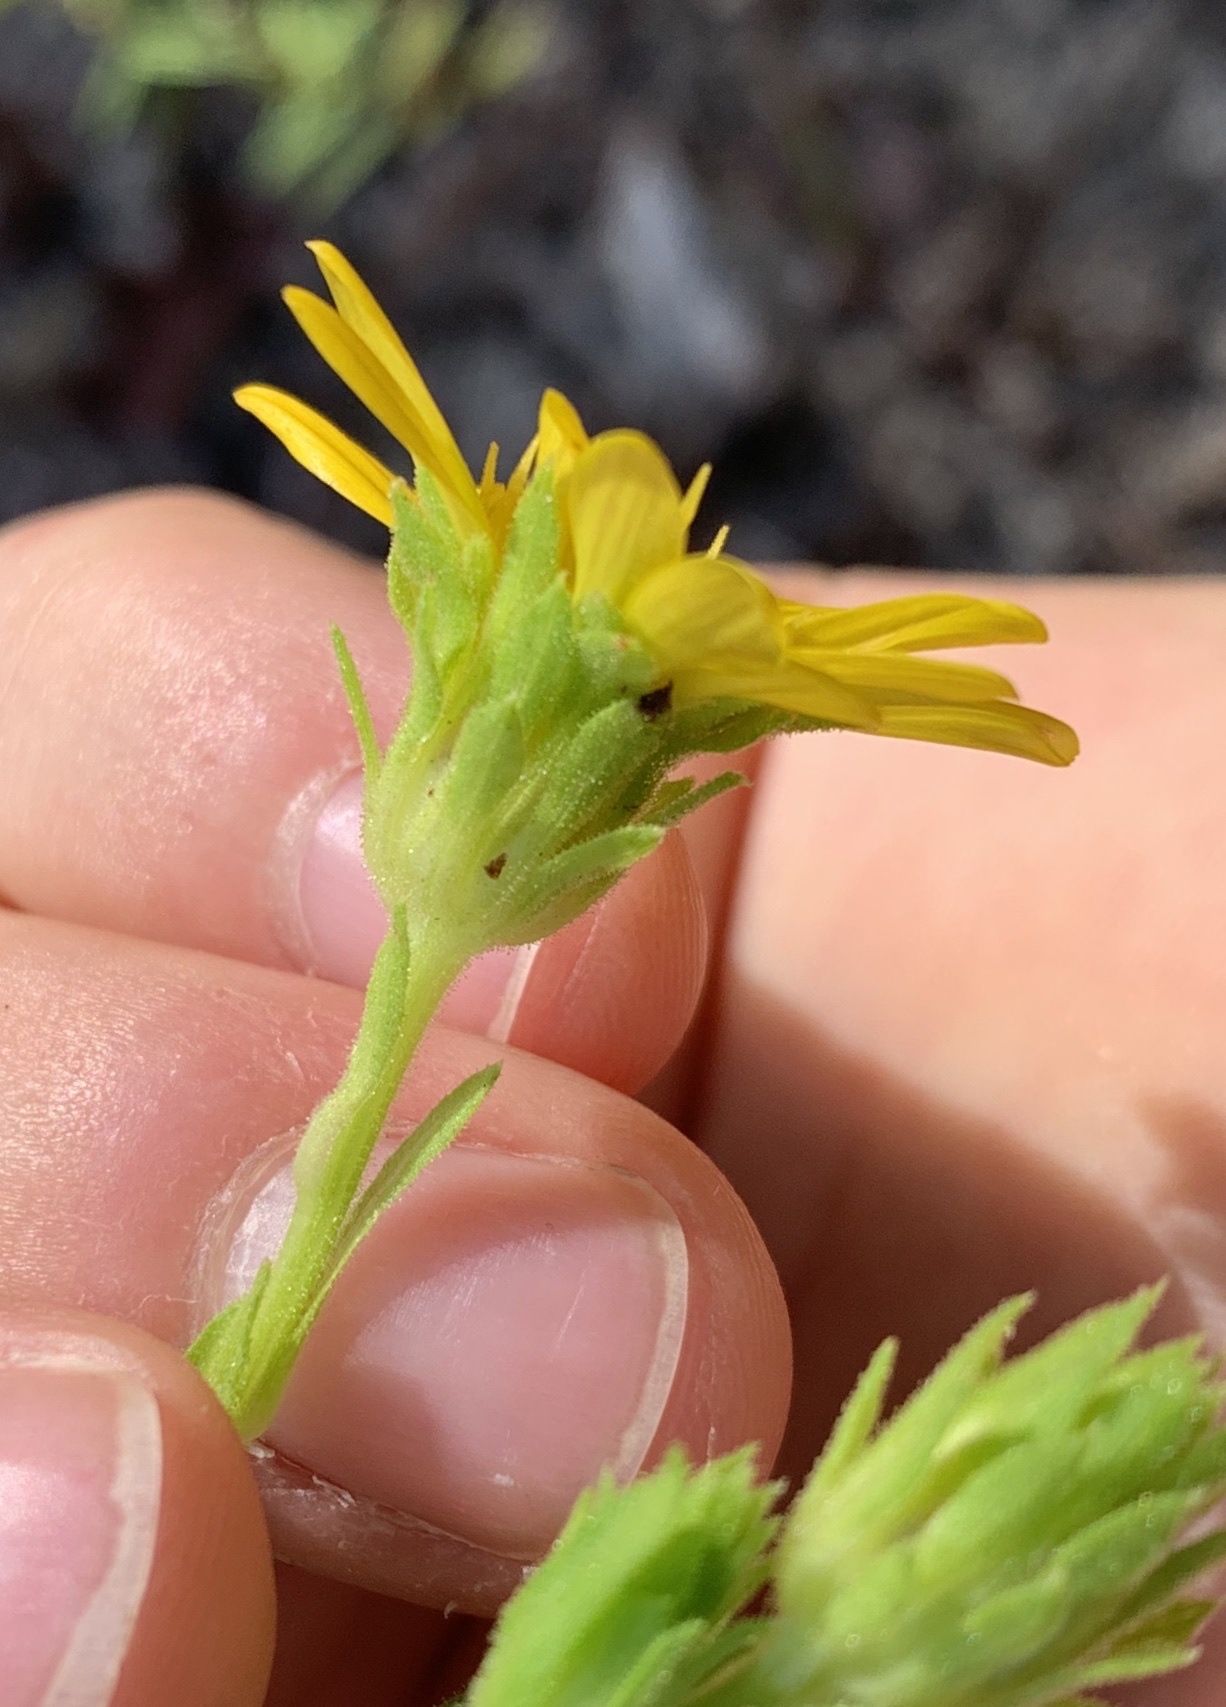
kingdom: Plantae
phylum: Tracheophyta
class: Magnoliopsida
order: Asterales
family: Asteraceae
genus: Chrysopsis
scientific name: Chrysopsis latisquamea
